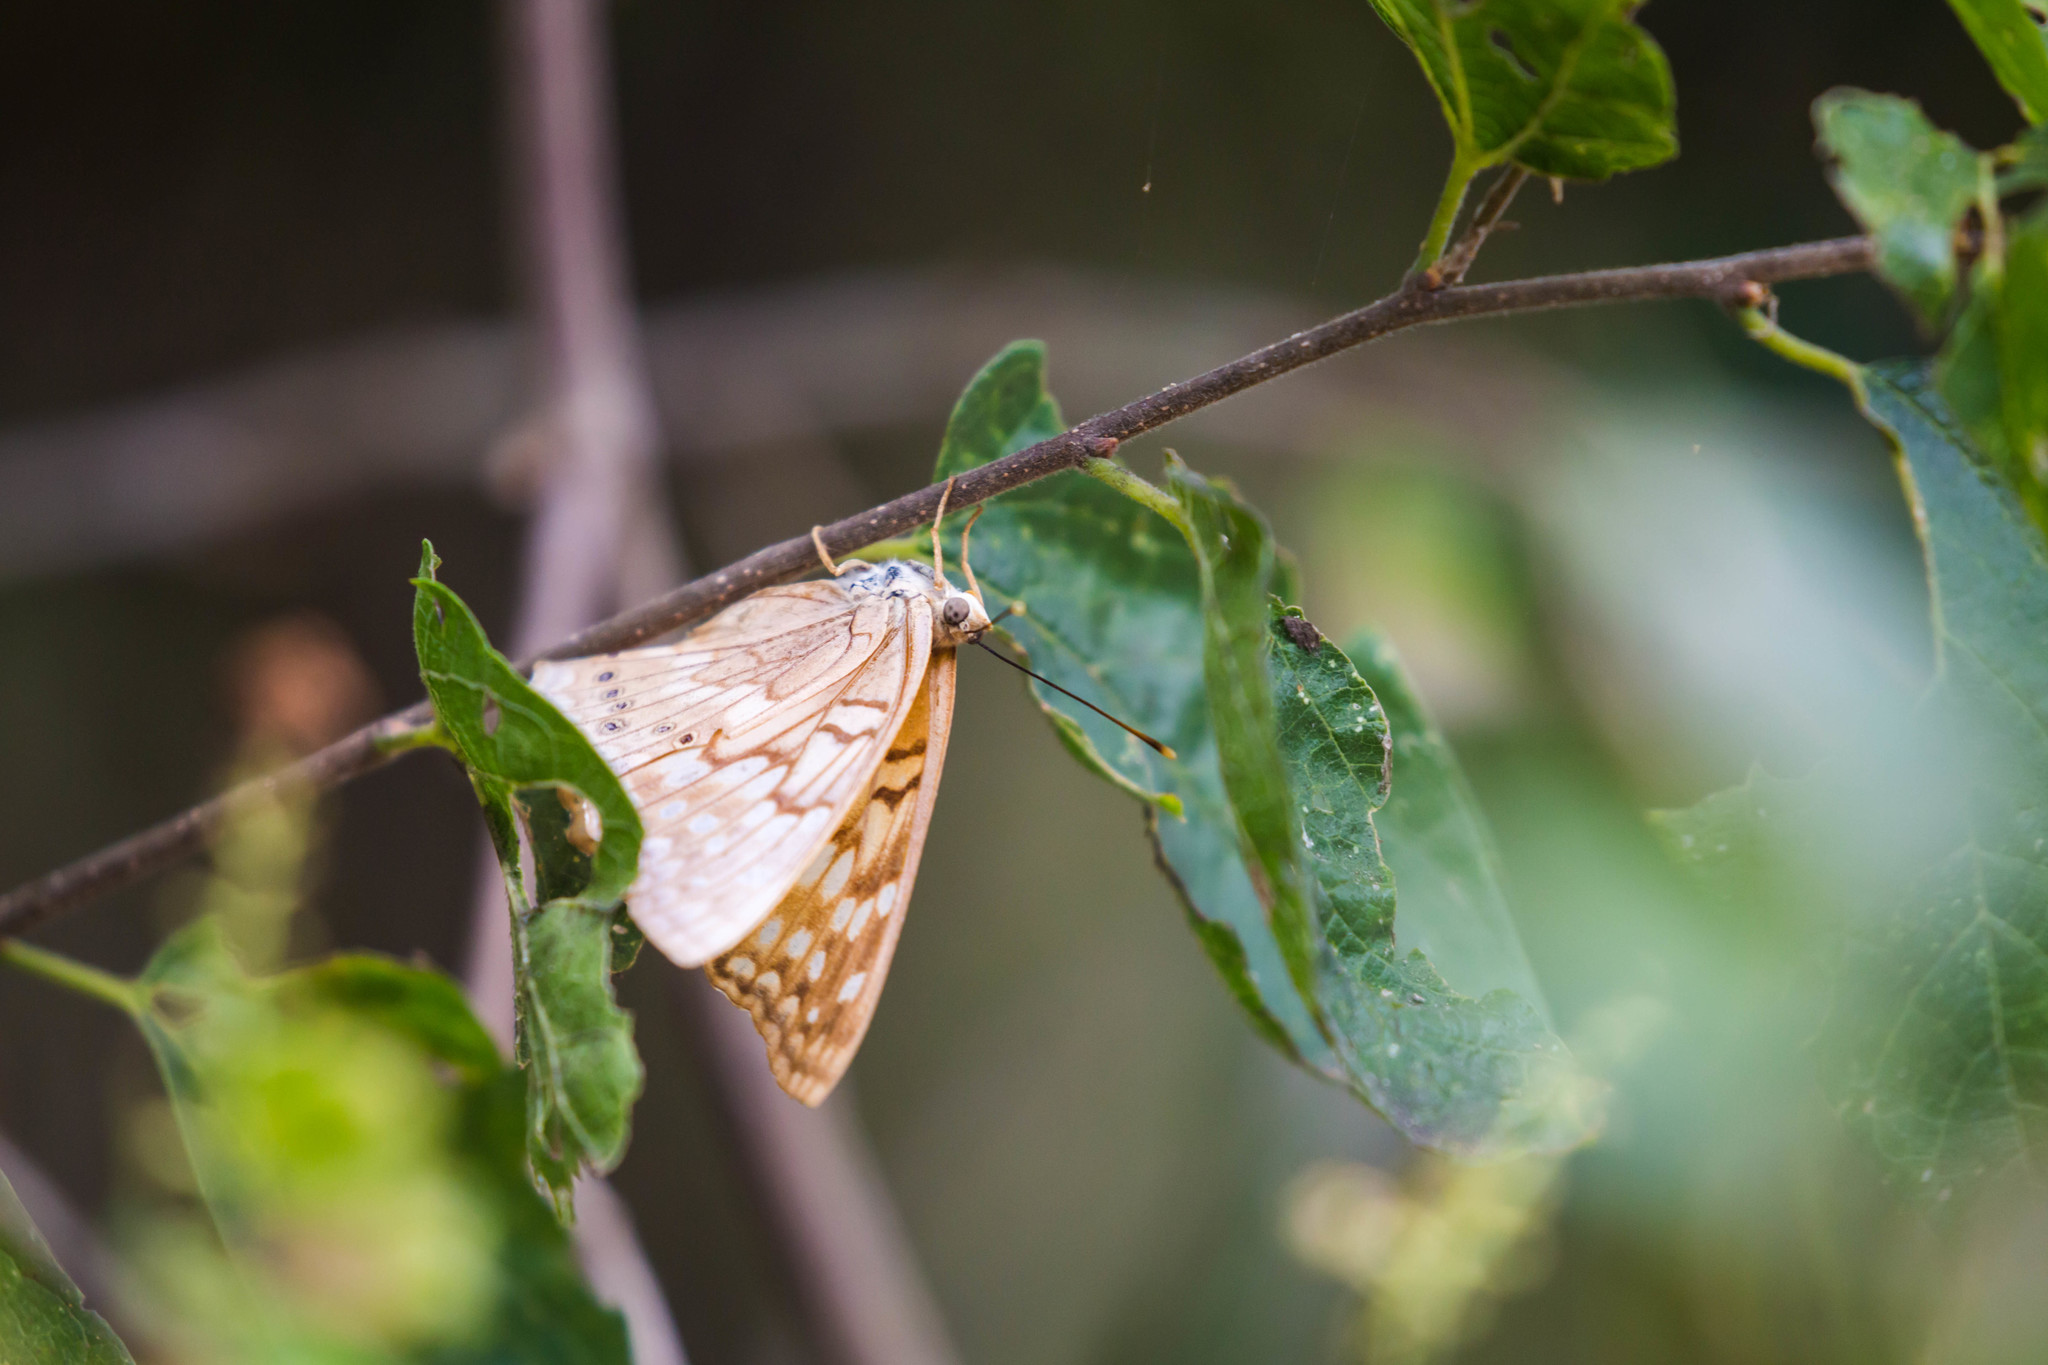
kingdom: Animalia
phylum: Arthropoda
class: Insecta
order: Lepidoptera
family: Nymphalidae
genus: Asterocampa
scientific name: Asterocampa clyton
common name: Tawny emperor
